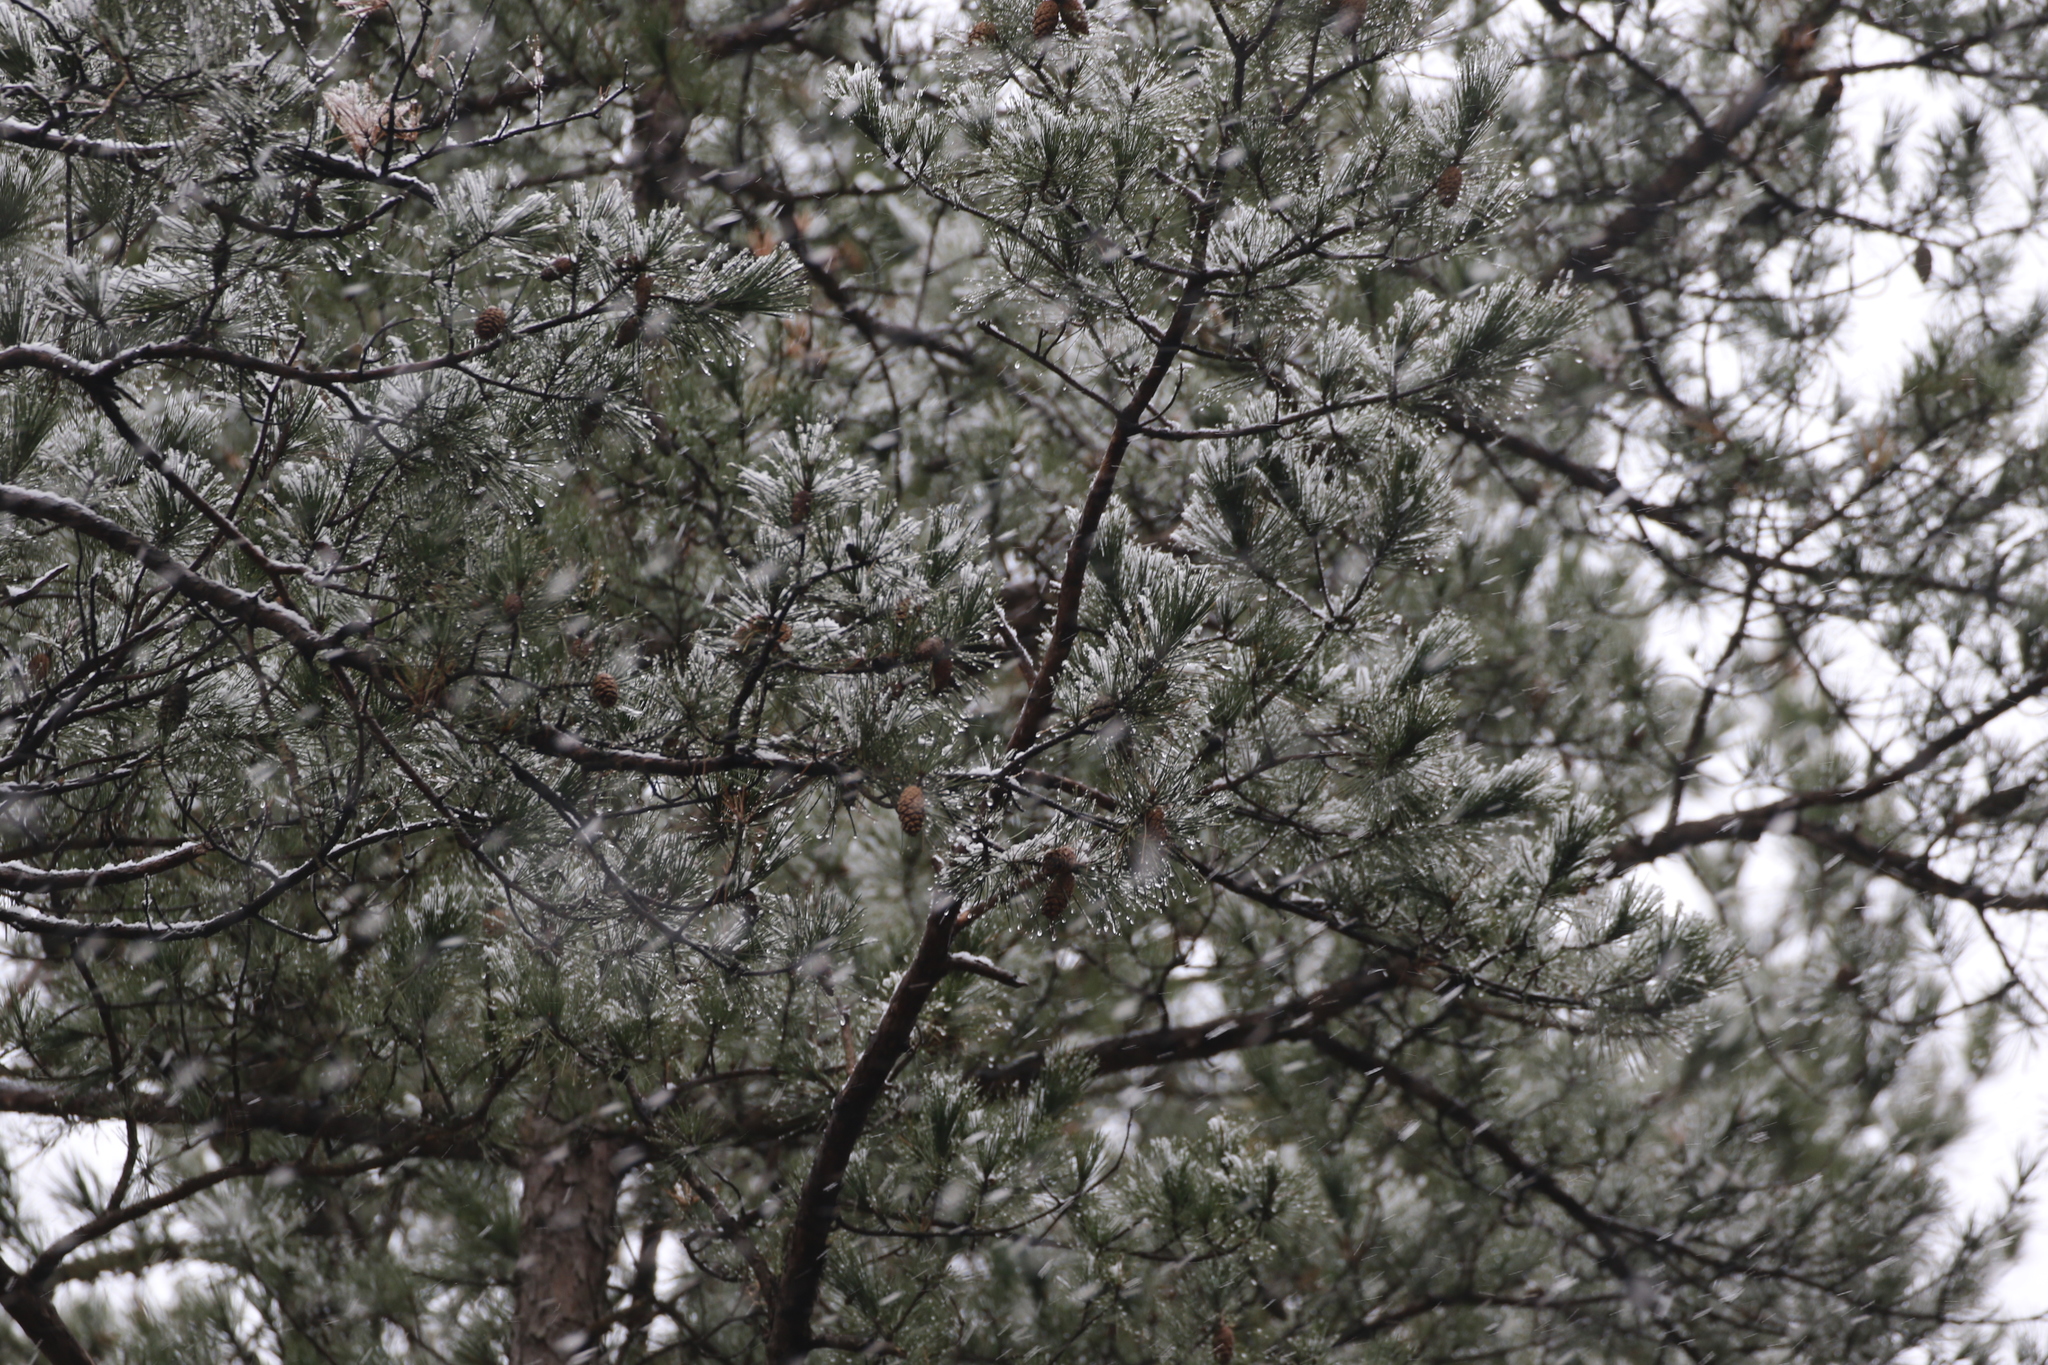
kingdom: Plantae
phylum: Tracheophyta
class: Pinopsida
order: Pinales
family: Pinaceae
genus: Pinus
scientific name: Pinus echinata
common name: Shortleaf pine
